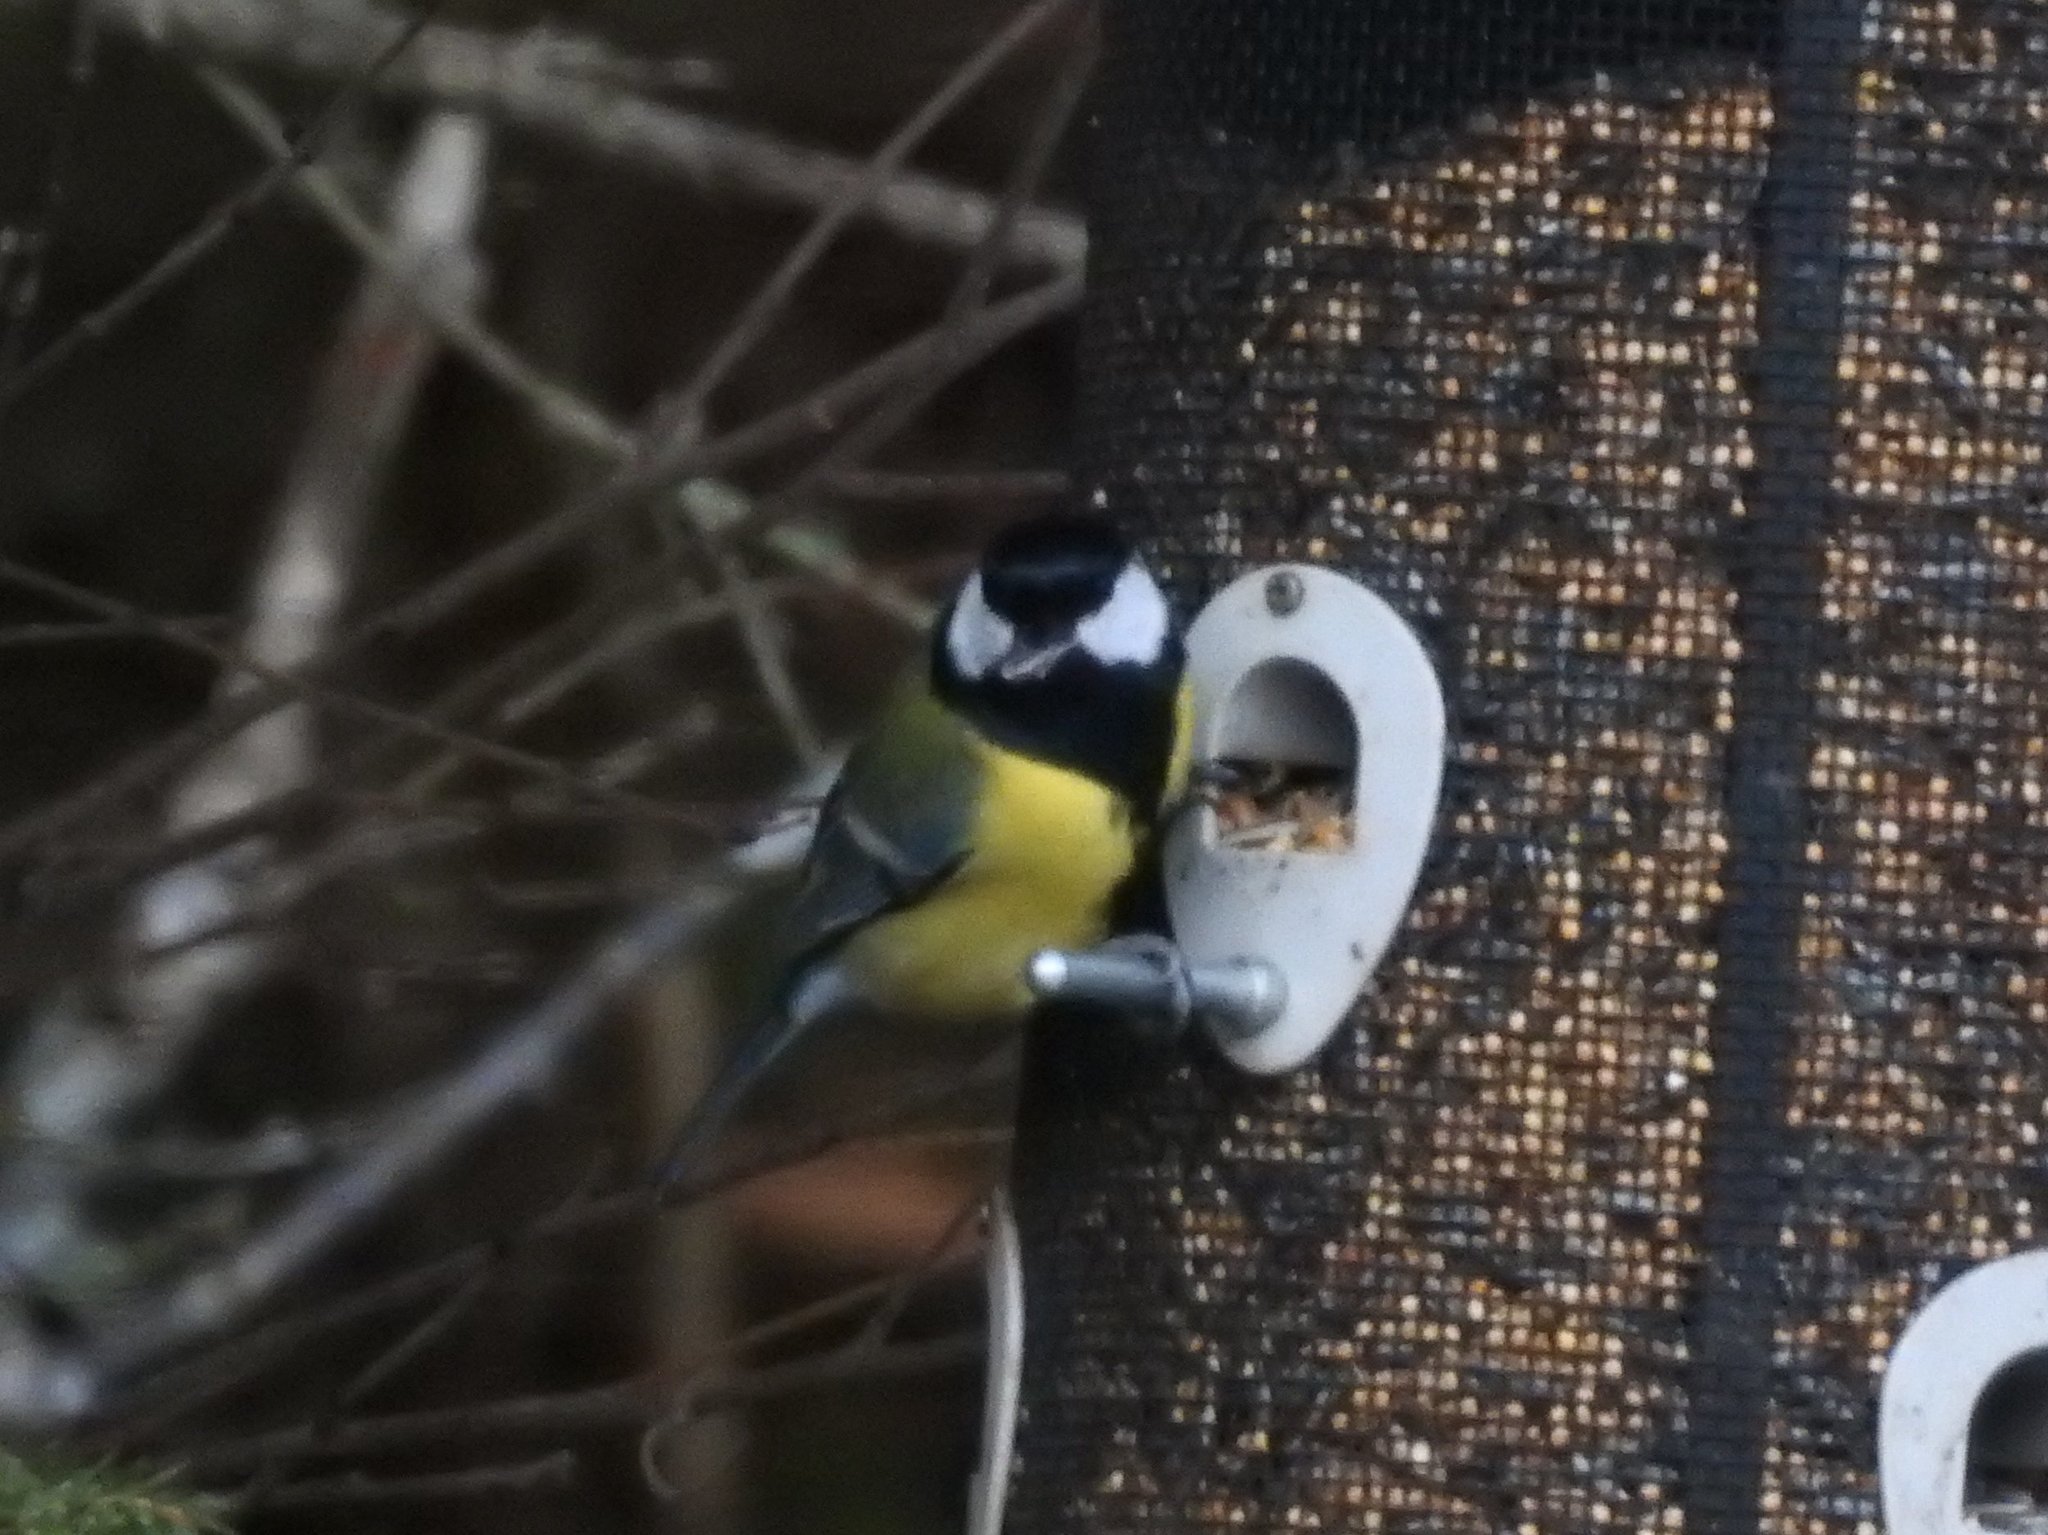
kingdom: Animalia
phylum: Chordata
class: Aves
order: Passeriformes
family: Paridae
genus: Parus
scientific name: Parus major
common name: Great tit
